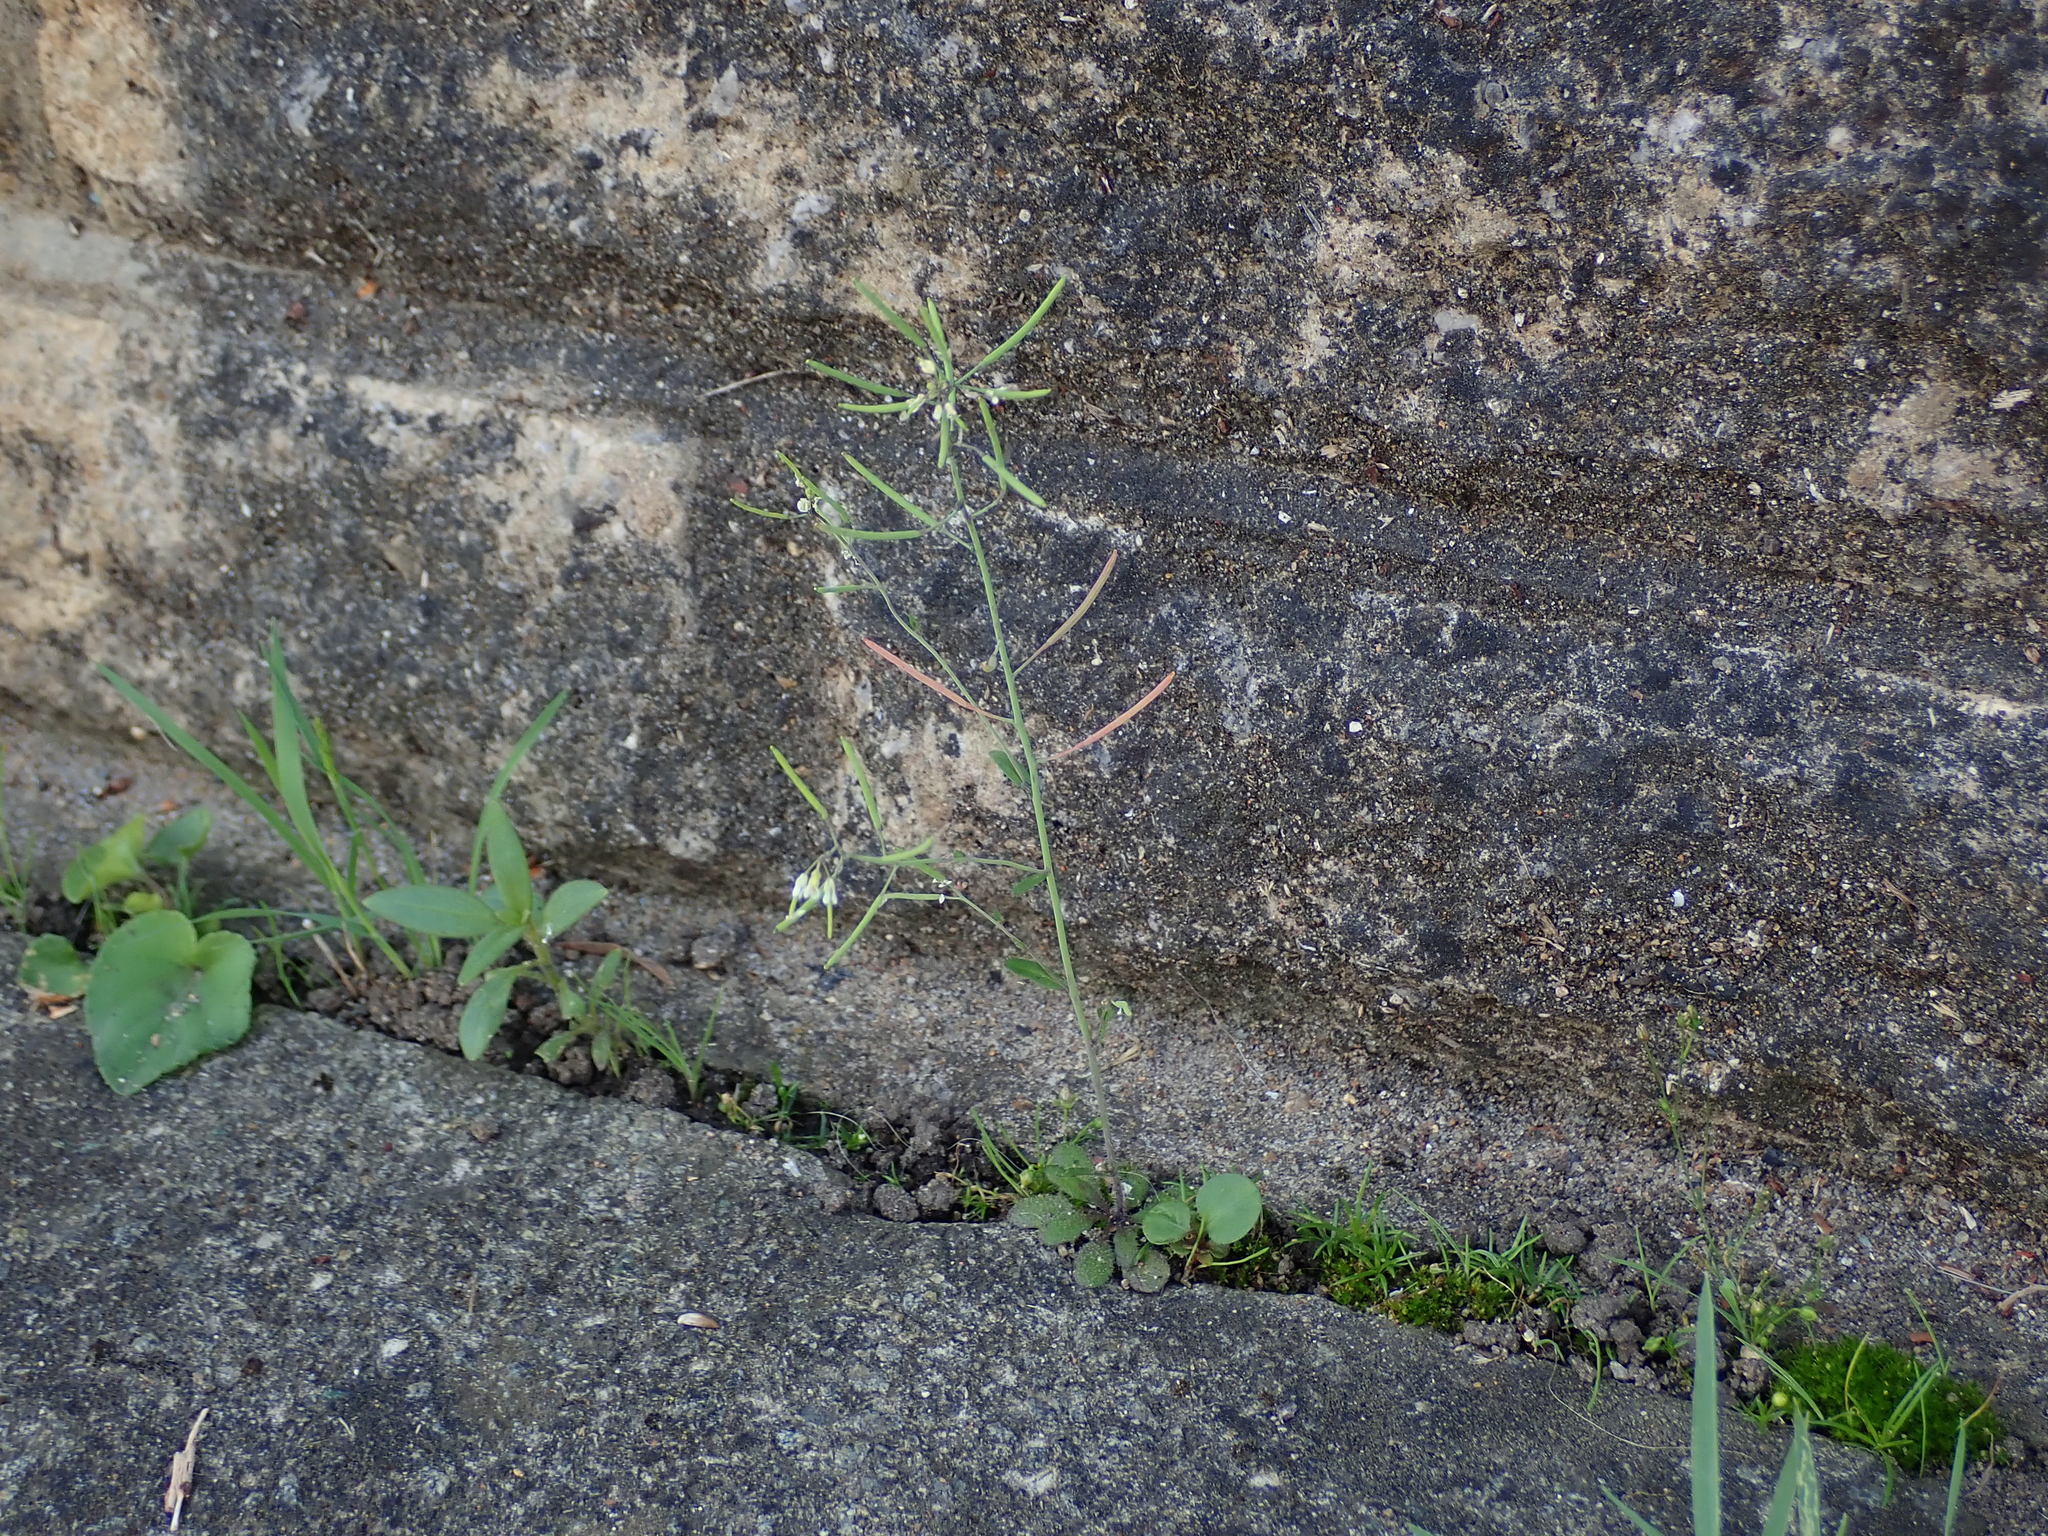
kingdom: Plantae
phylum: Tracheophyta
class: Magnoliopsida
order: Brassicales
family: Brassicaceae
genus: Arabidopsis
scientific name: Arabidopsis thaliana
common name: Thale cress
